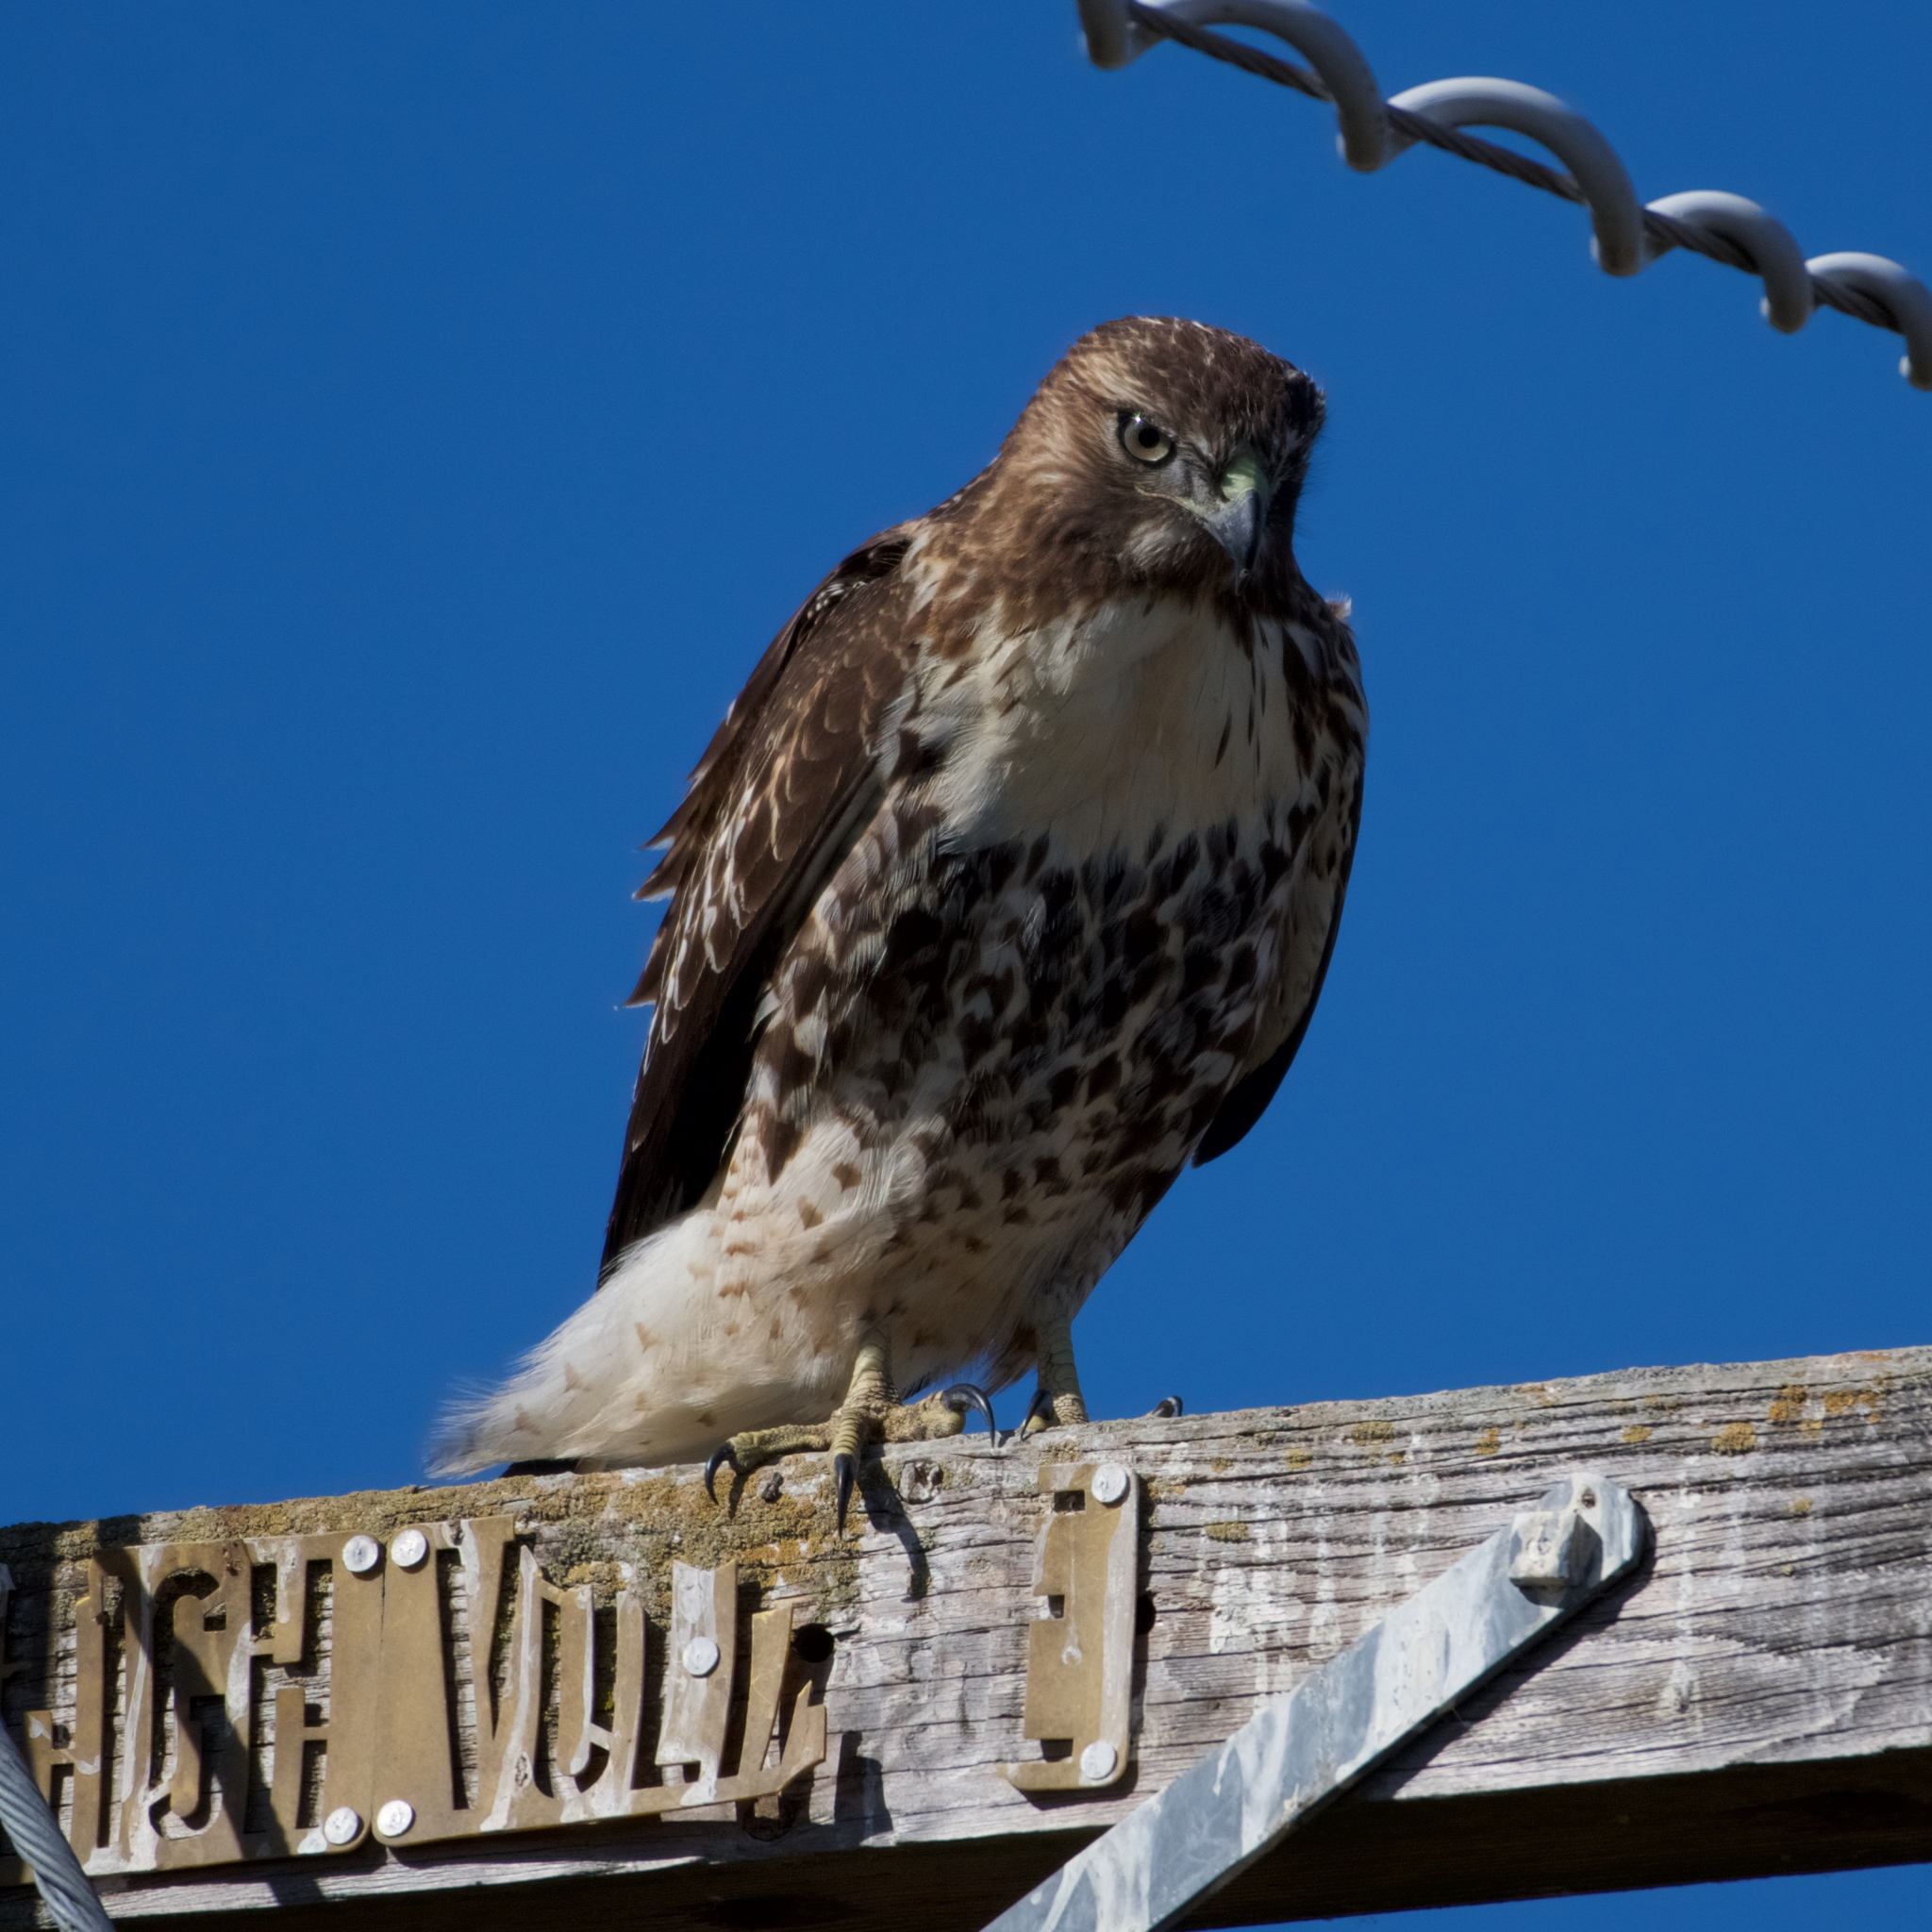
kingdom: Animalia
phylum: Chordata
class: Aves
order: Accipitriformes
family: Accipitridae
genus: Buteo
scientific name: Buteo jamaicensis
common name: Red-tailed hawk
